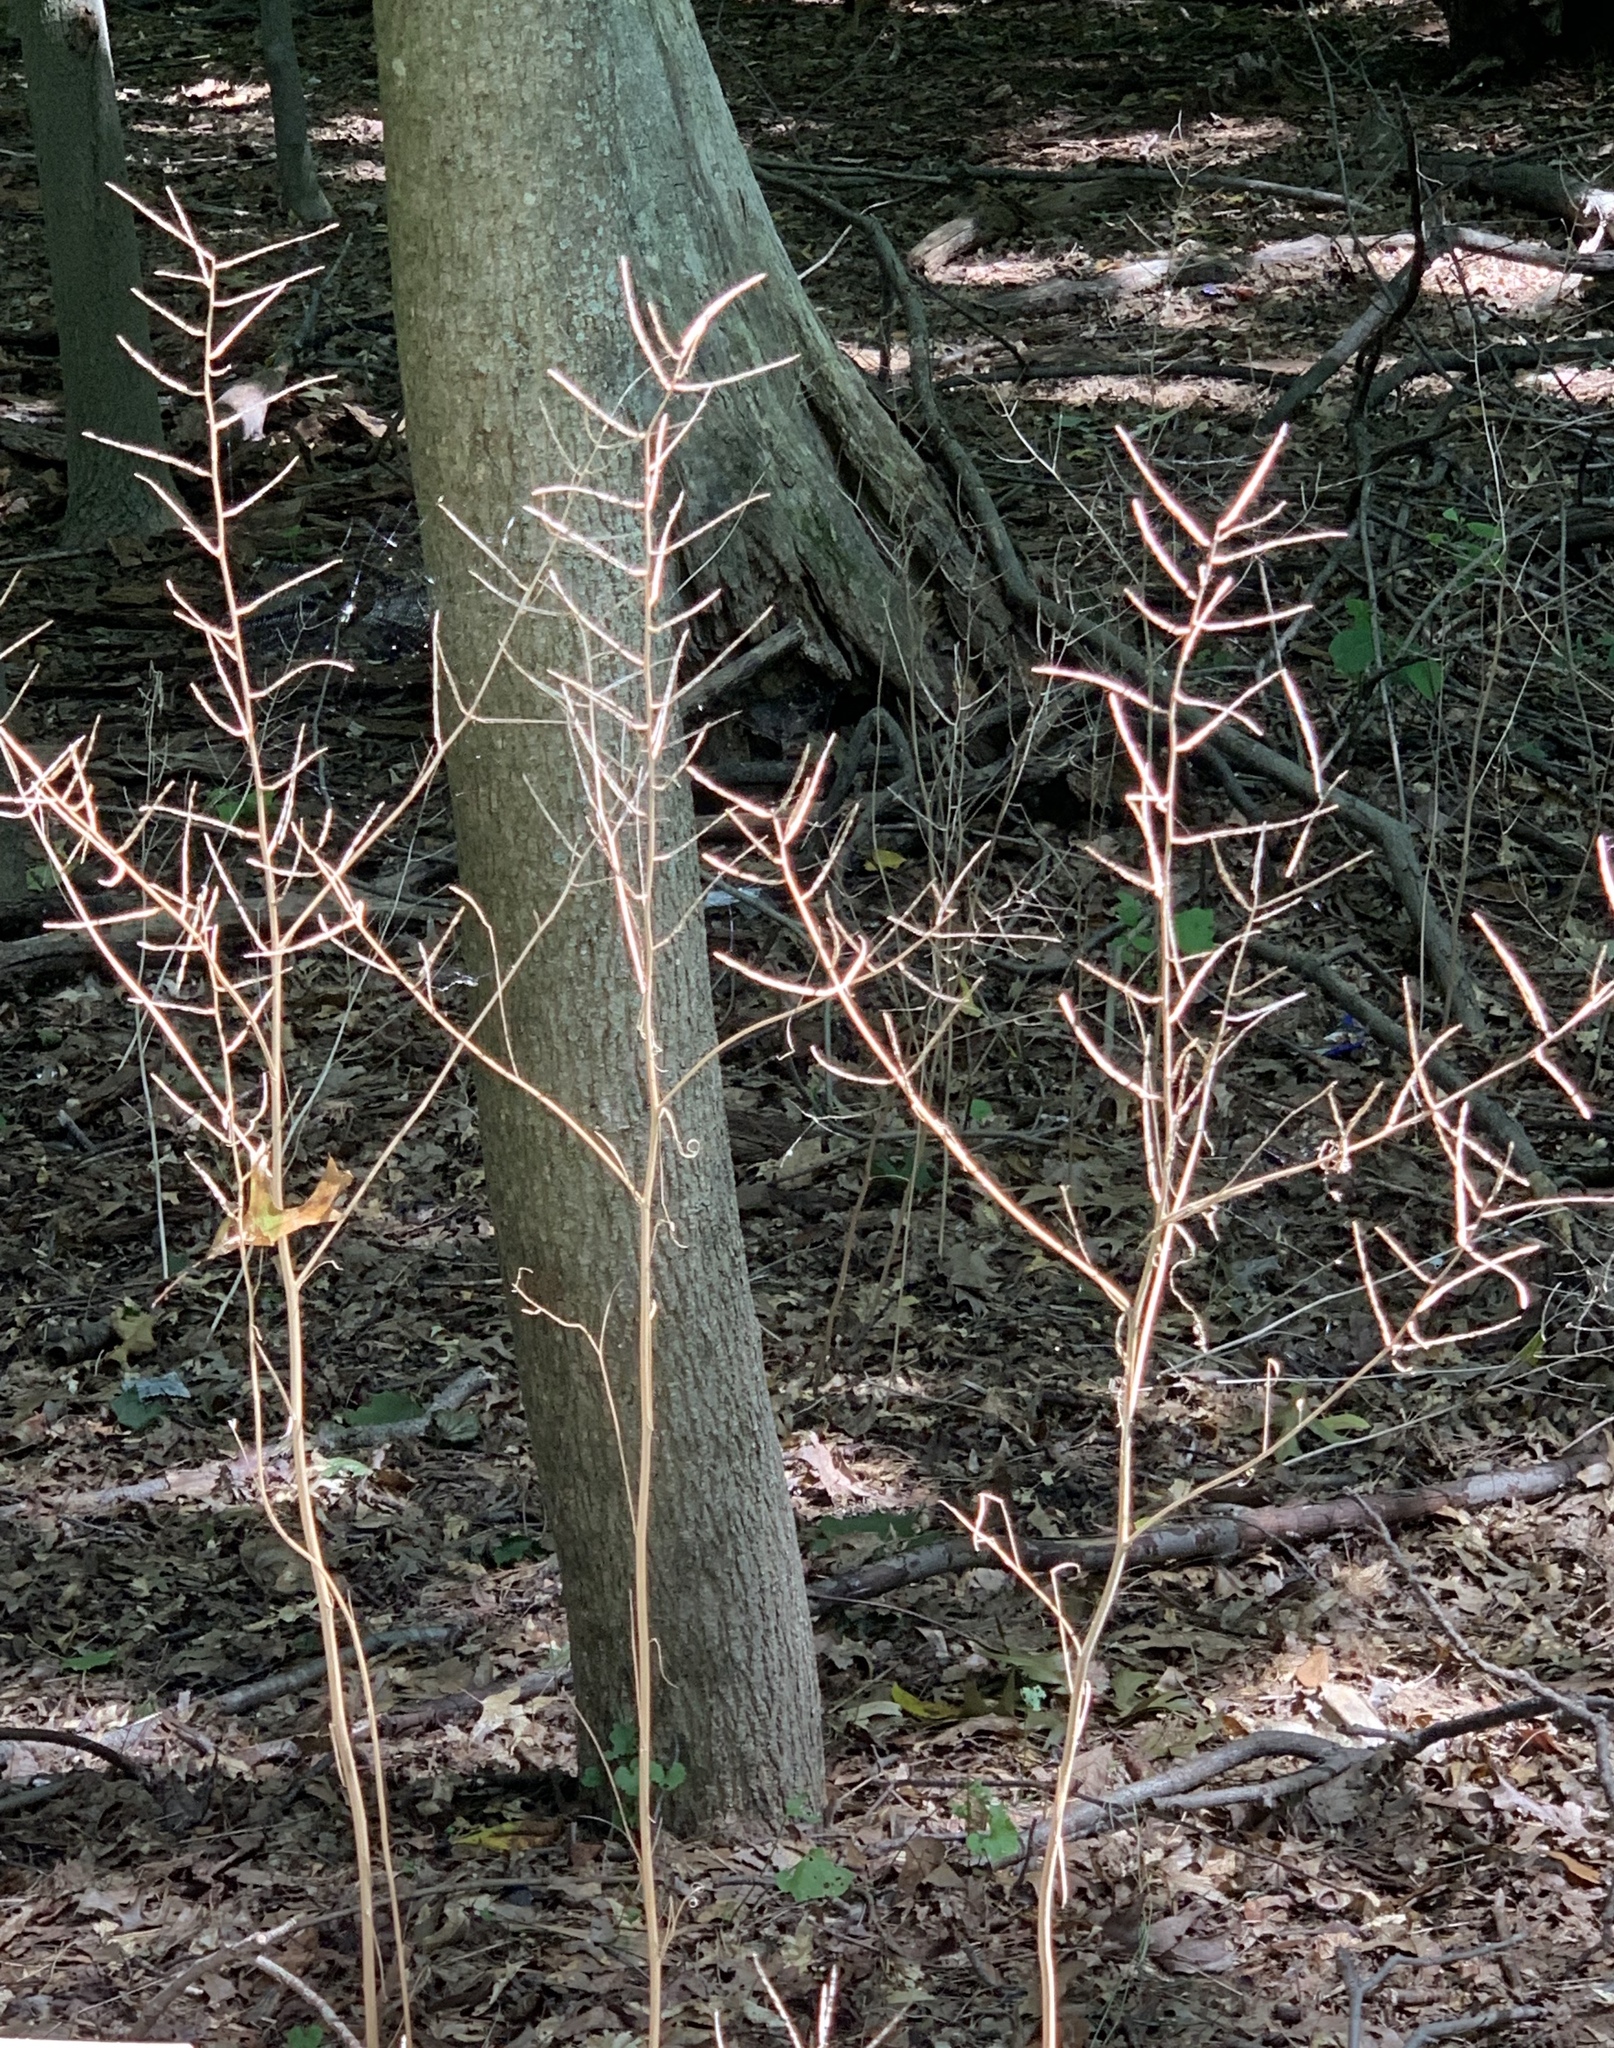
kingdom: Plantae
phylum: Tracheophyta
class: Magnoliopsida
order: Brassicales
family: Brassicaceae
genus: Alliaria
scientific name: Alliaria petiolata
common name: Garlic mustard
